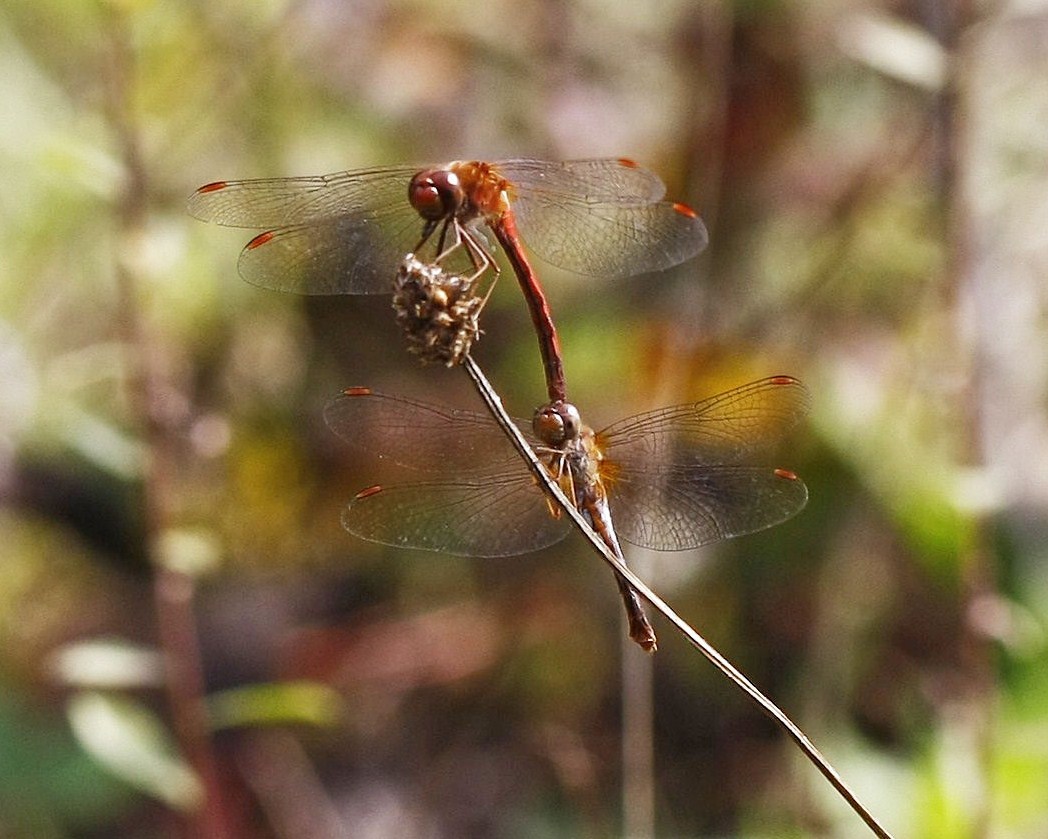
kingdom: Animalia
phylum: Arthropoda
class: Insecta
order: Odonata
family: Libellulidae
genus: Sympetrum
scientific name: Sympetrum vicinum
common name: Autumn meadowhawk
